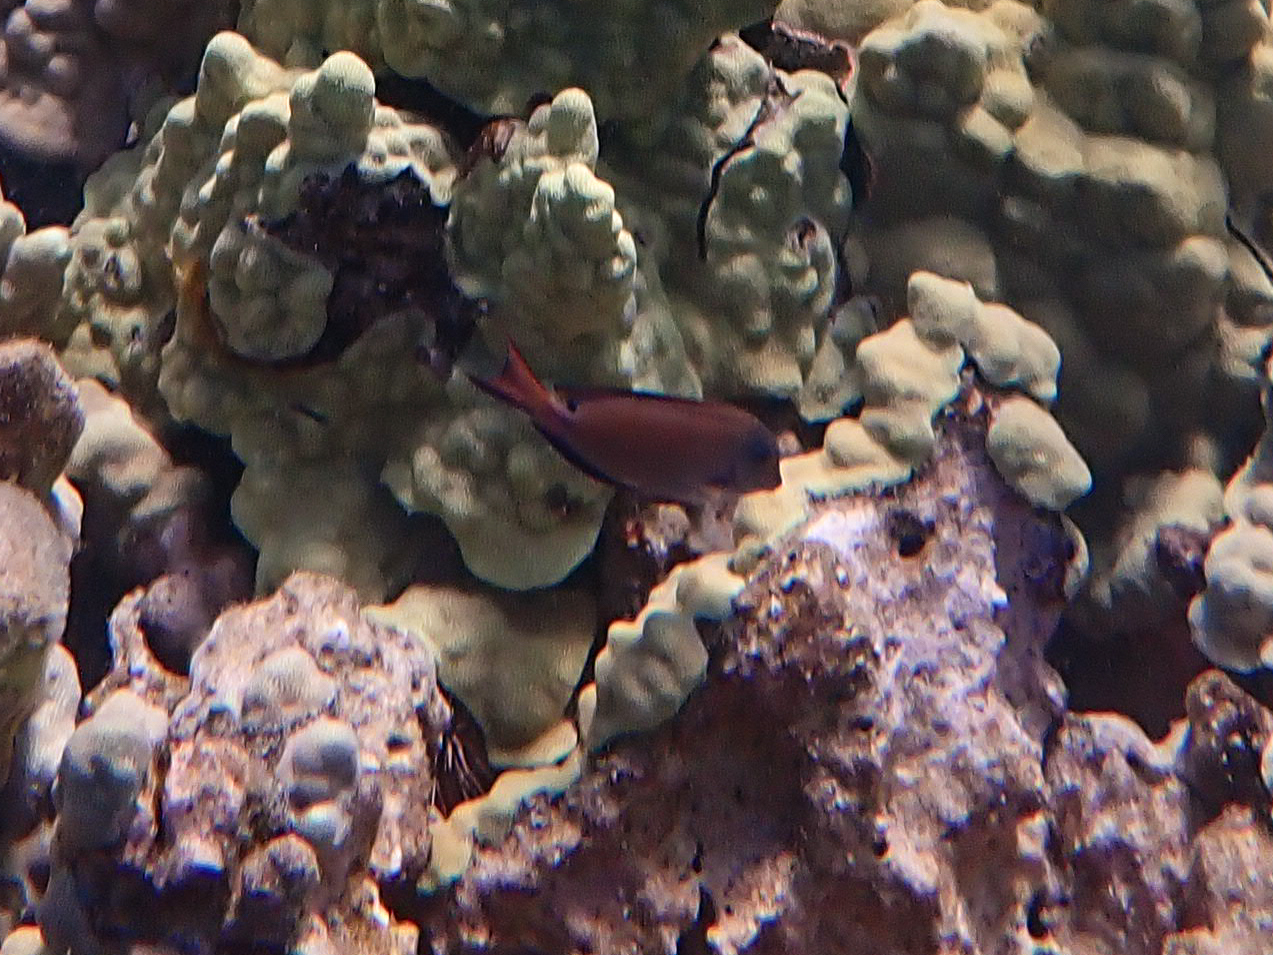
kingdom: Animalia
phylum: Chordata
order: Perciformes
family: Acanthuridae
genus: Acanthurus
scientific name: Acanthurus nigrofuscus
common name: Blackspot surgeonfish
